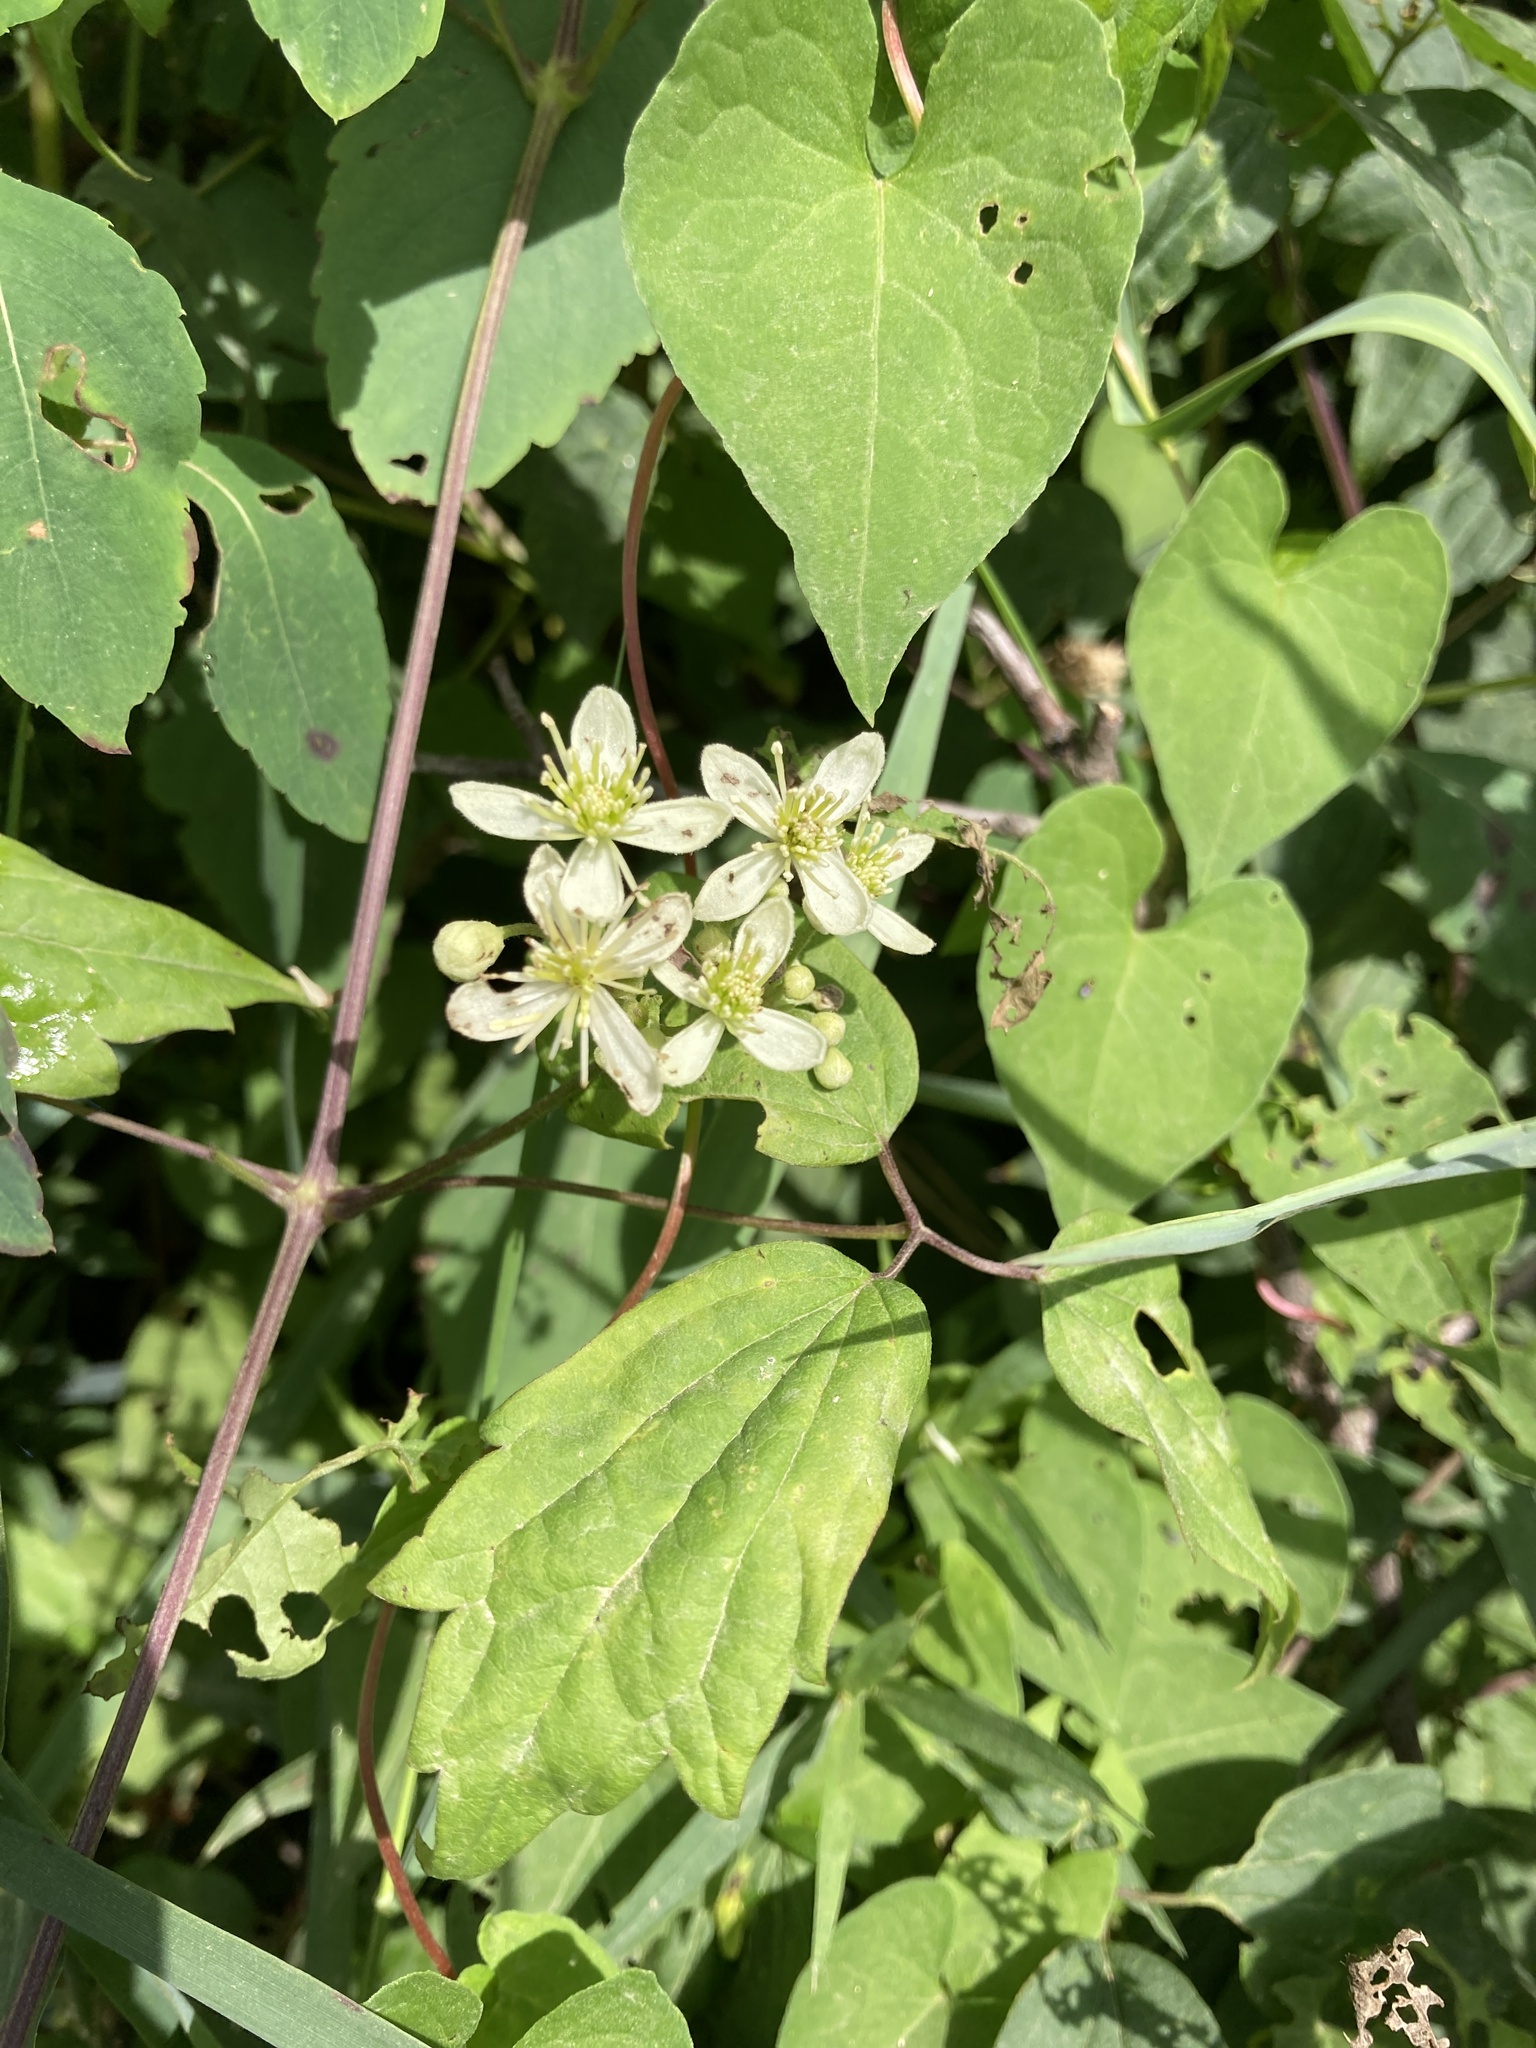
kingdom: Plantae
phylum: Tracheophyta
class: Magnoliopsida
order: Ranunculales
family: Ranunculaceae
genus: Clematis
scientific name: Clematis virginiana
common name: Virgin's-bower
